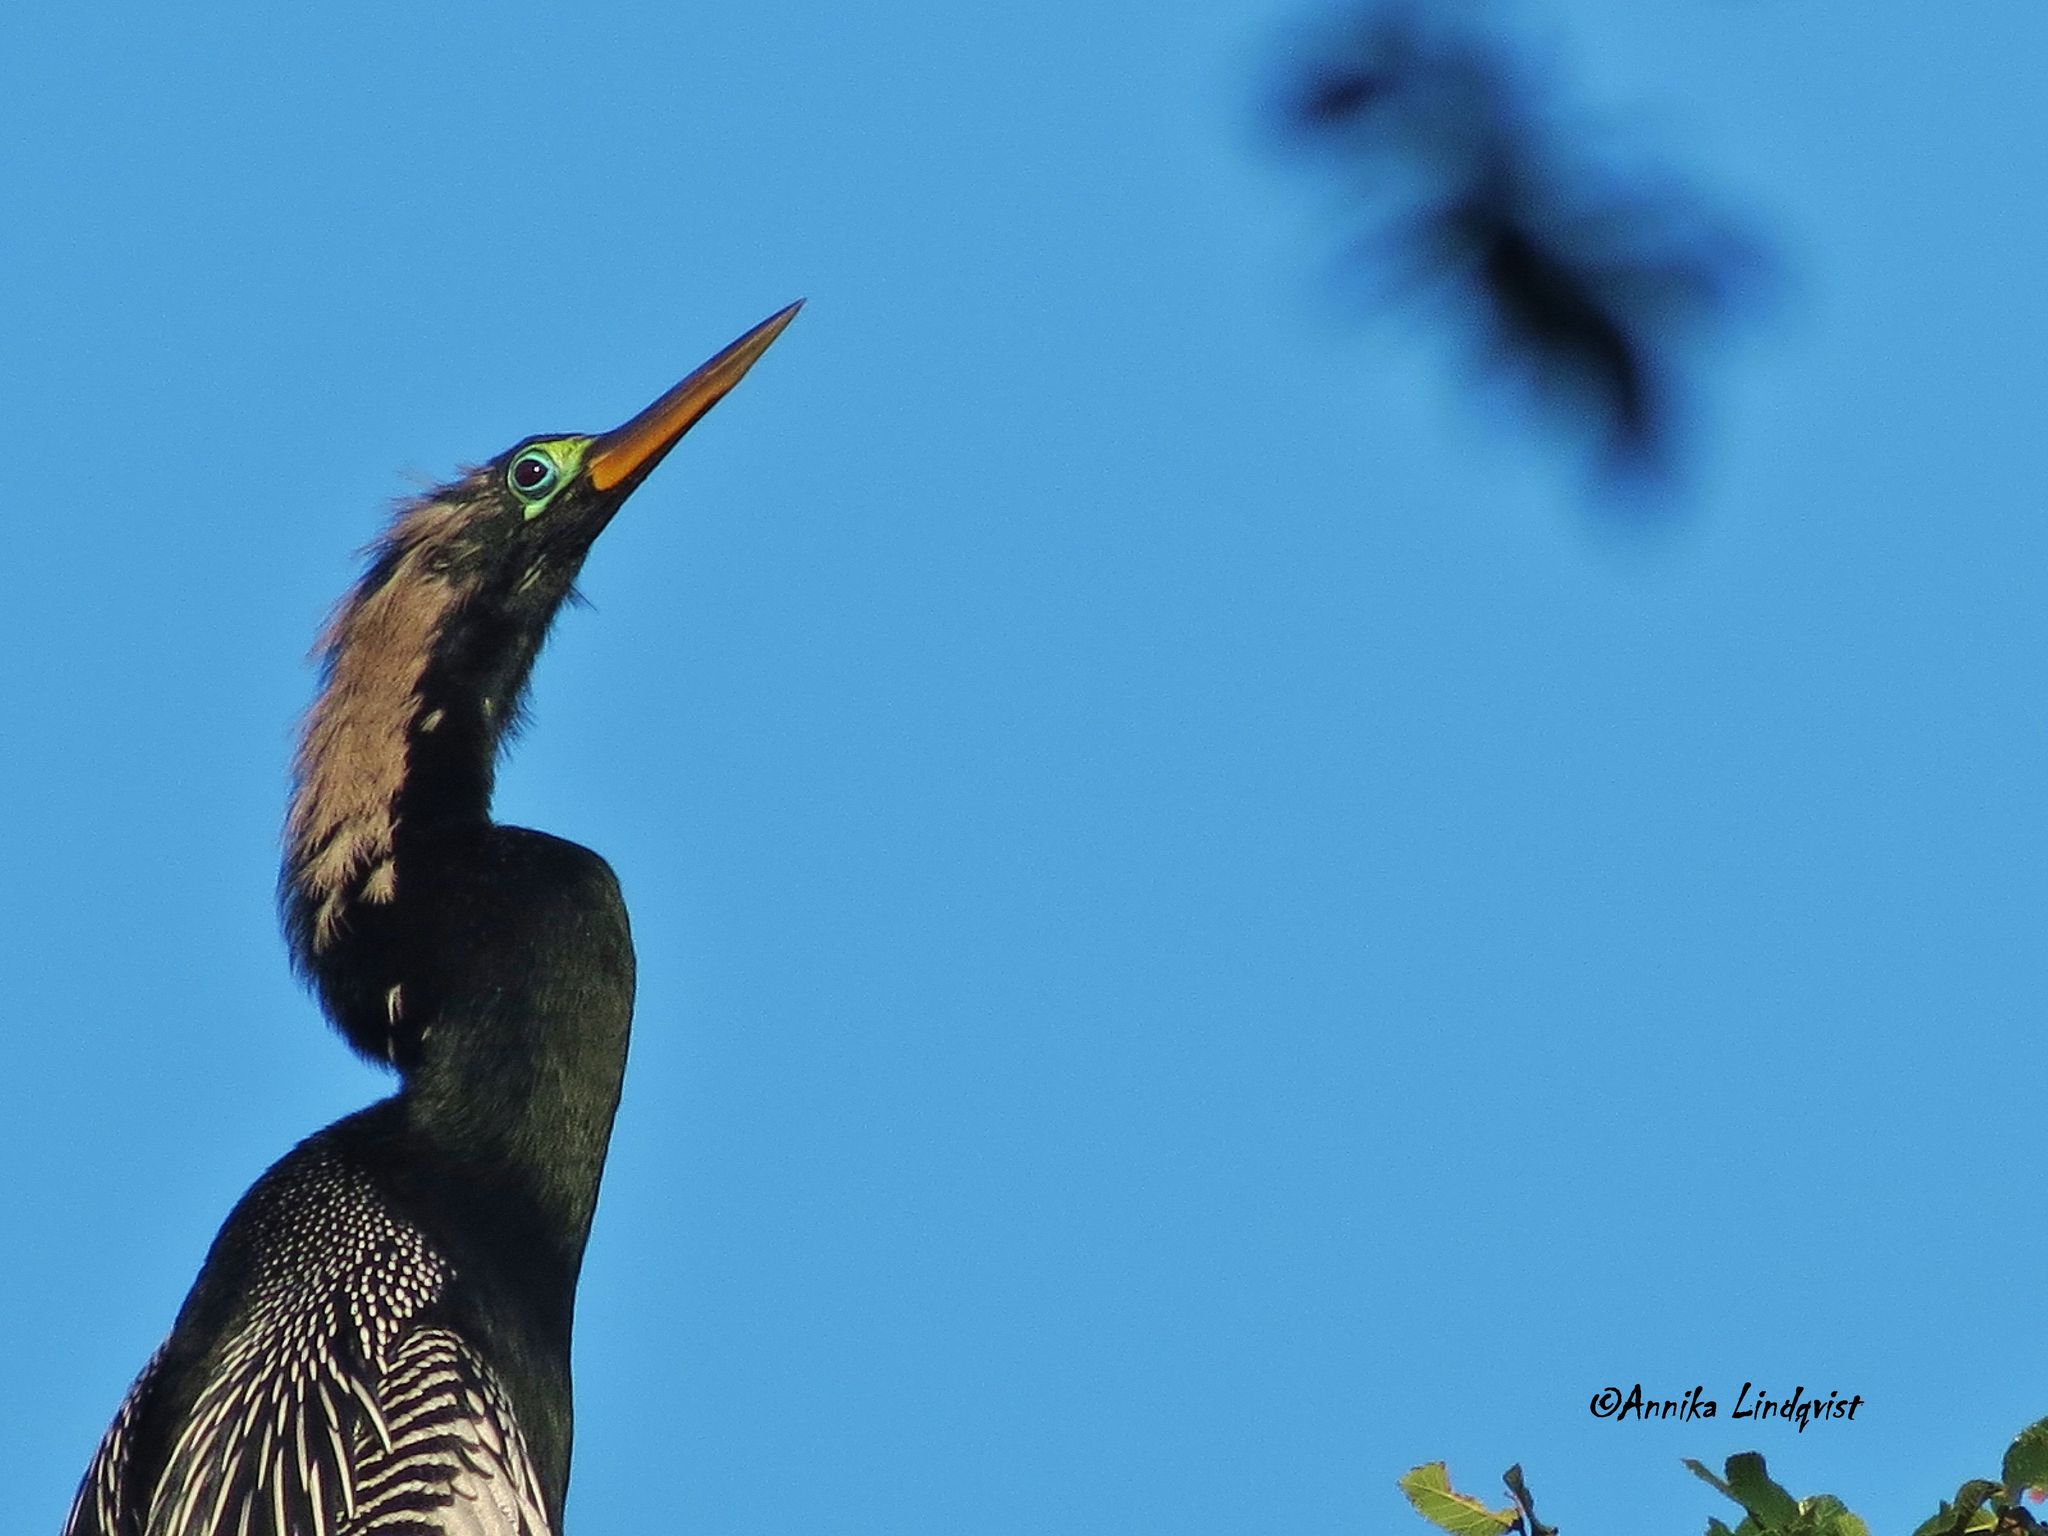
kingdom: Animalia
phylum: Chordata
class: Aves
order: Suliformes
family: Anhingidae
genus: Anhinga
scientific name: Anhinga anhinga
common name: Anhinga
